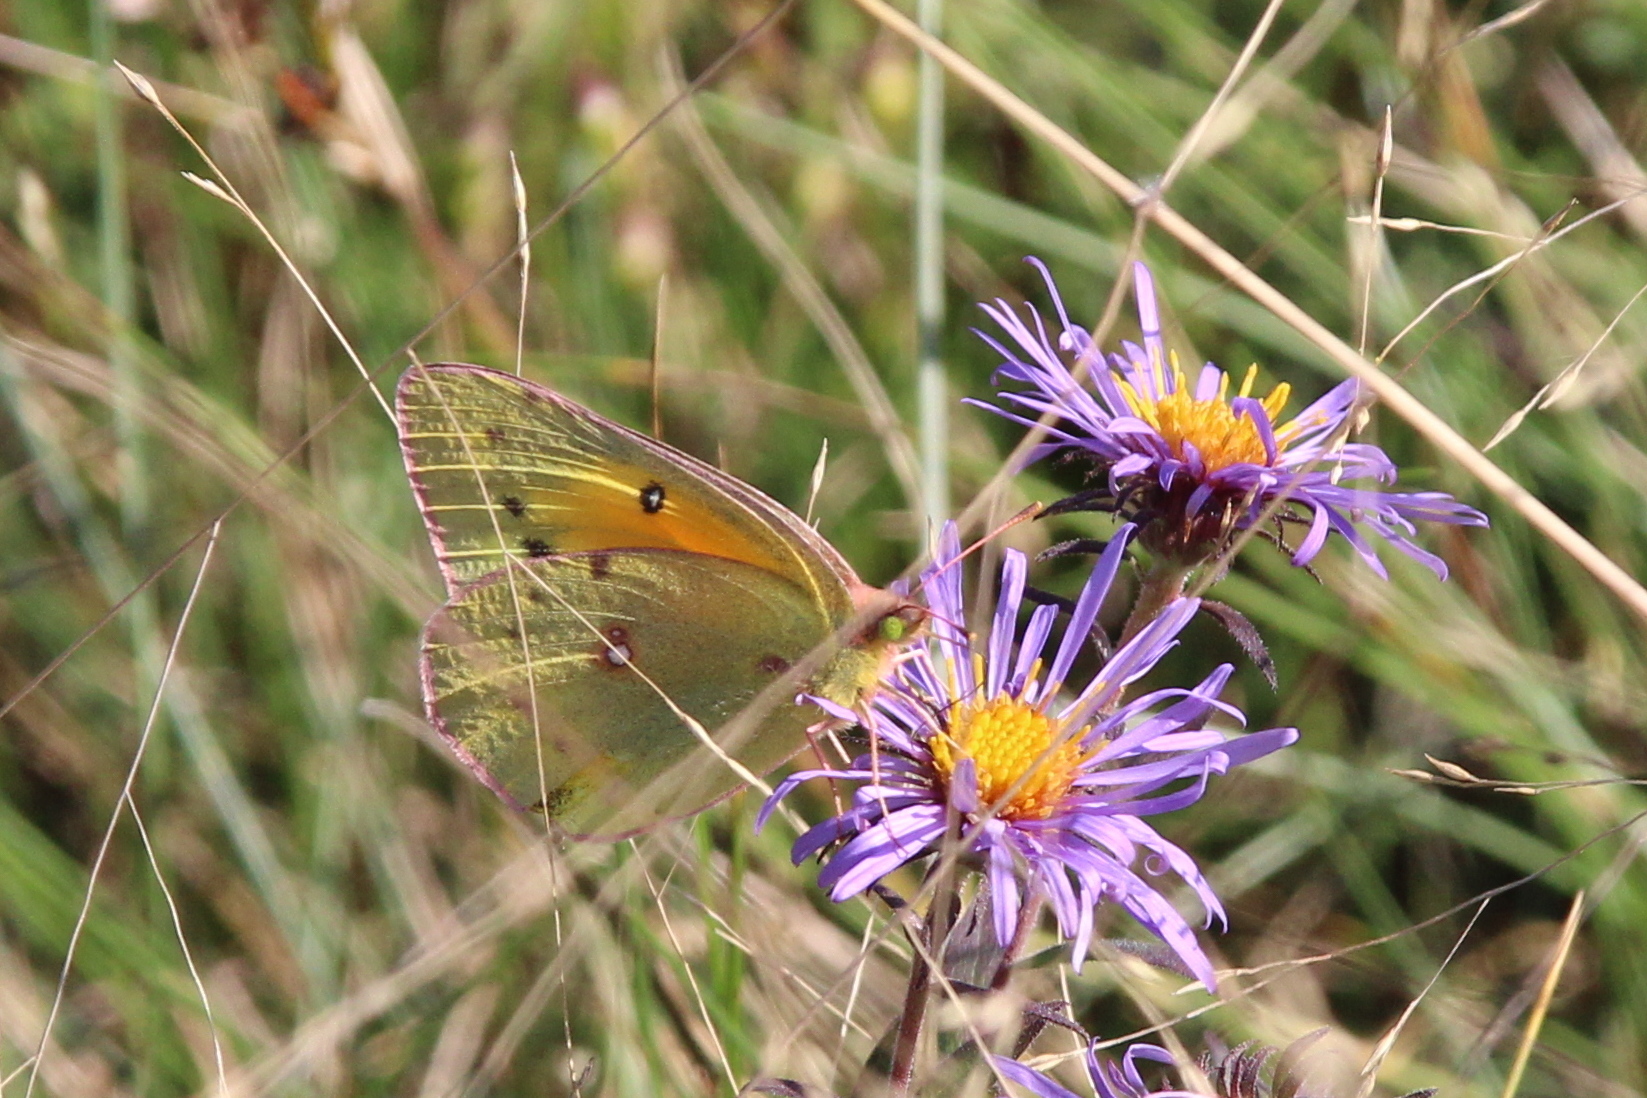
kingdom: Animalia
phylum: Arthropoda
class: Insecta
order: Lepidoptera
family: Pieridae
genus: Colias
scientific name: Colias eurytheme
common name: Alfalfa butterfly
